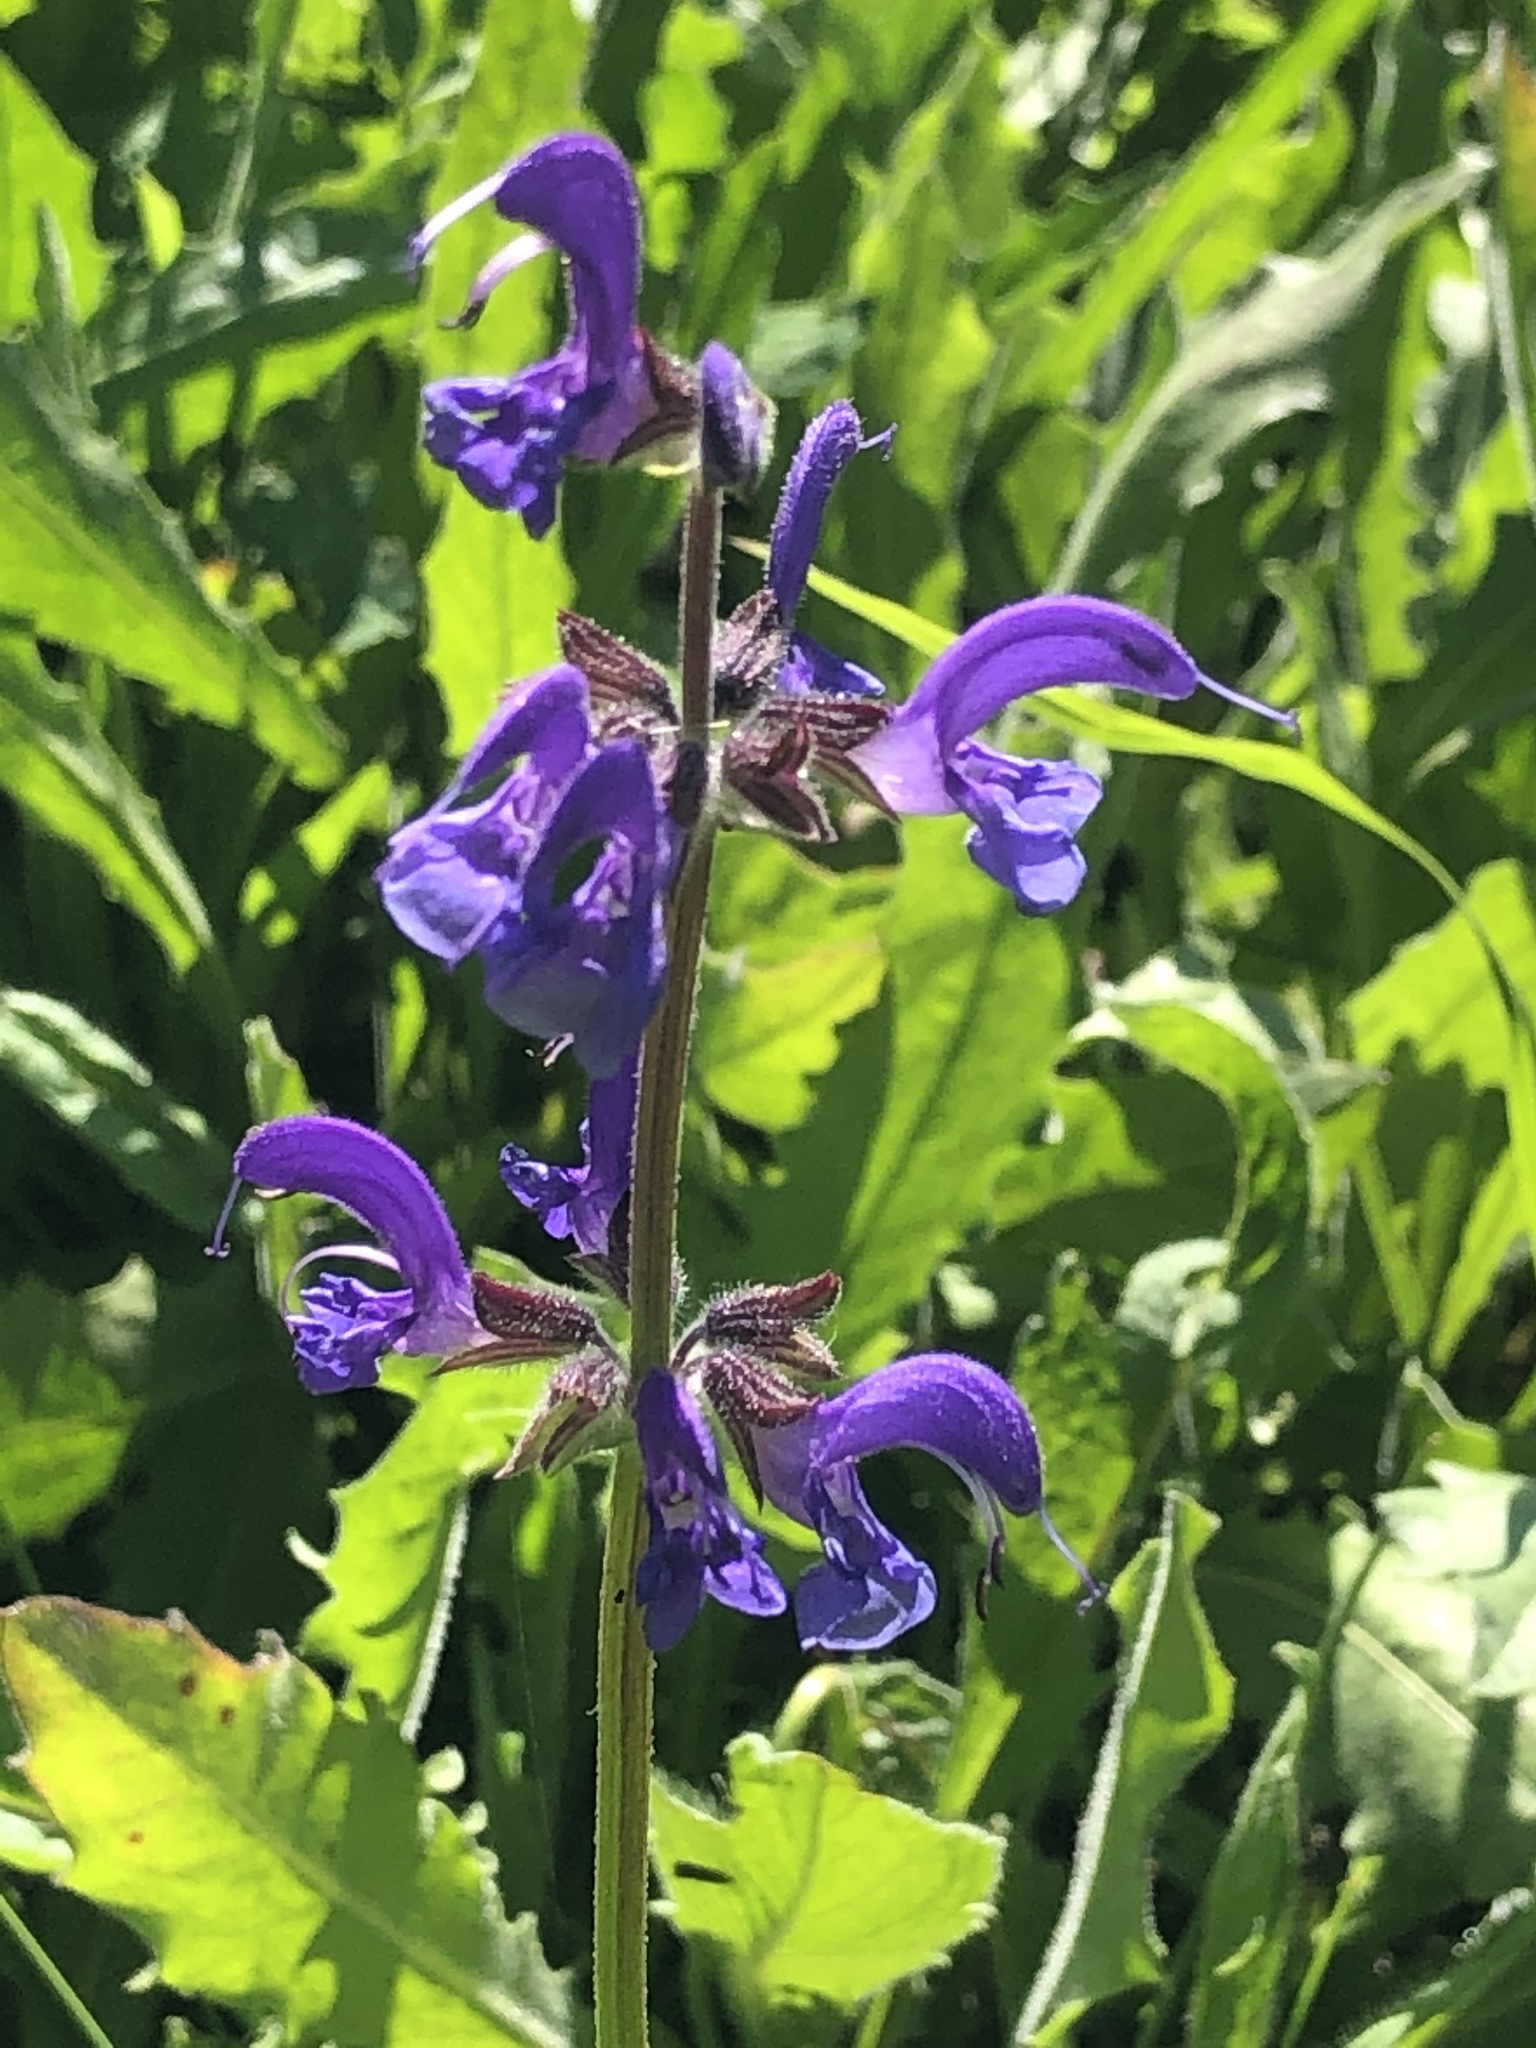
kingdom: Plantae
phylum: Tracheophyta
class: Magnoliopsida
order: Lamiales
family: Lamiaceae
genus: Salvia
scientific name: Salvia pratensis
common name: Meadow sage
